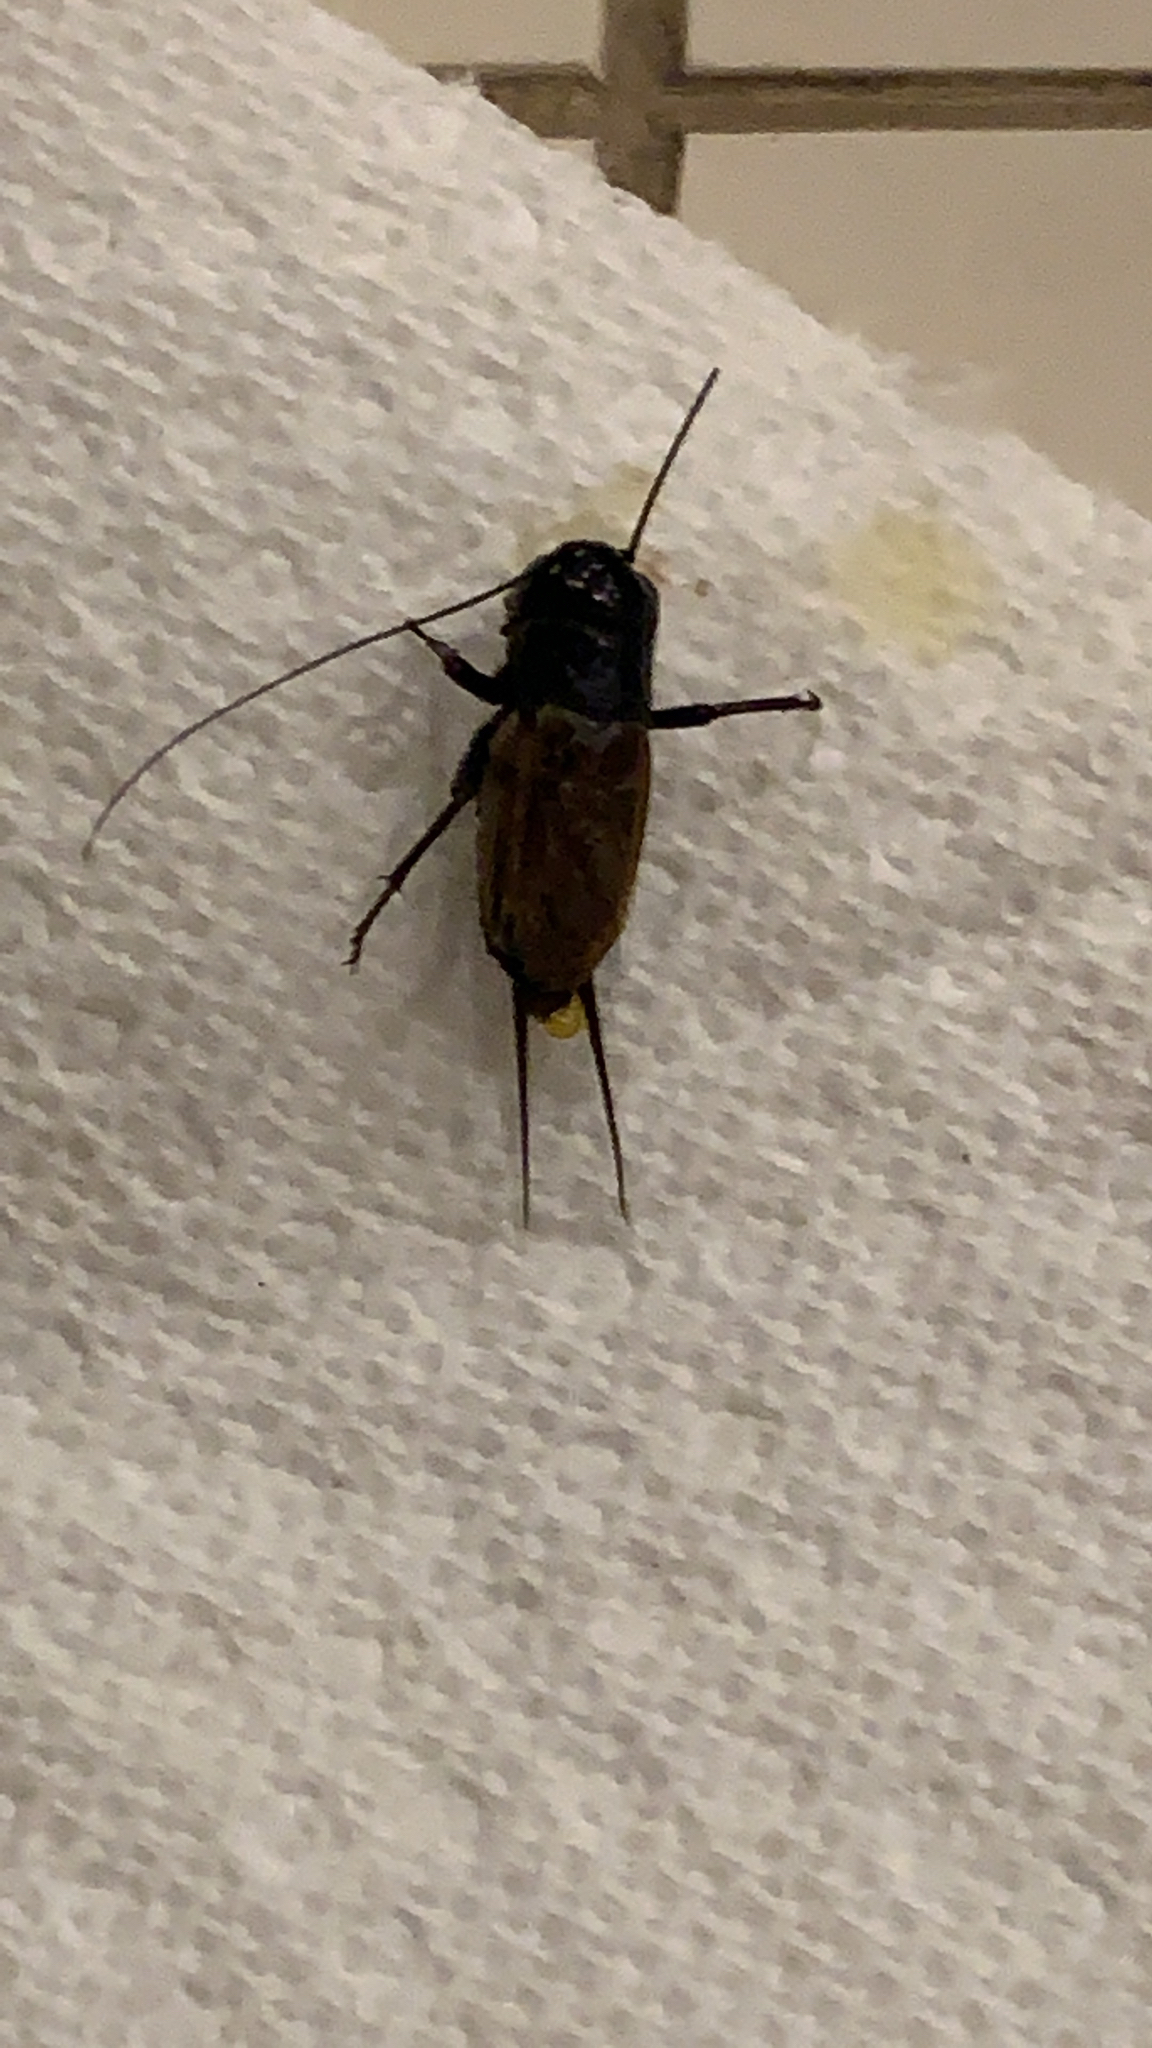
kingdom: Animalia
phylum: Arthropoda
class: Insecta
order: Orthoptera
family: Gryllidae
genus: Gryllus
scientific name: Gryllus pennsylvanicus
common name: Fall field cricket
